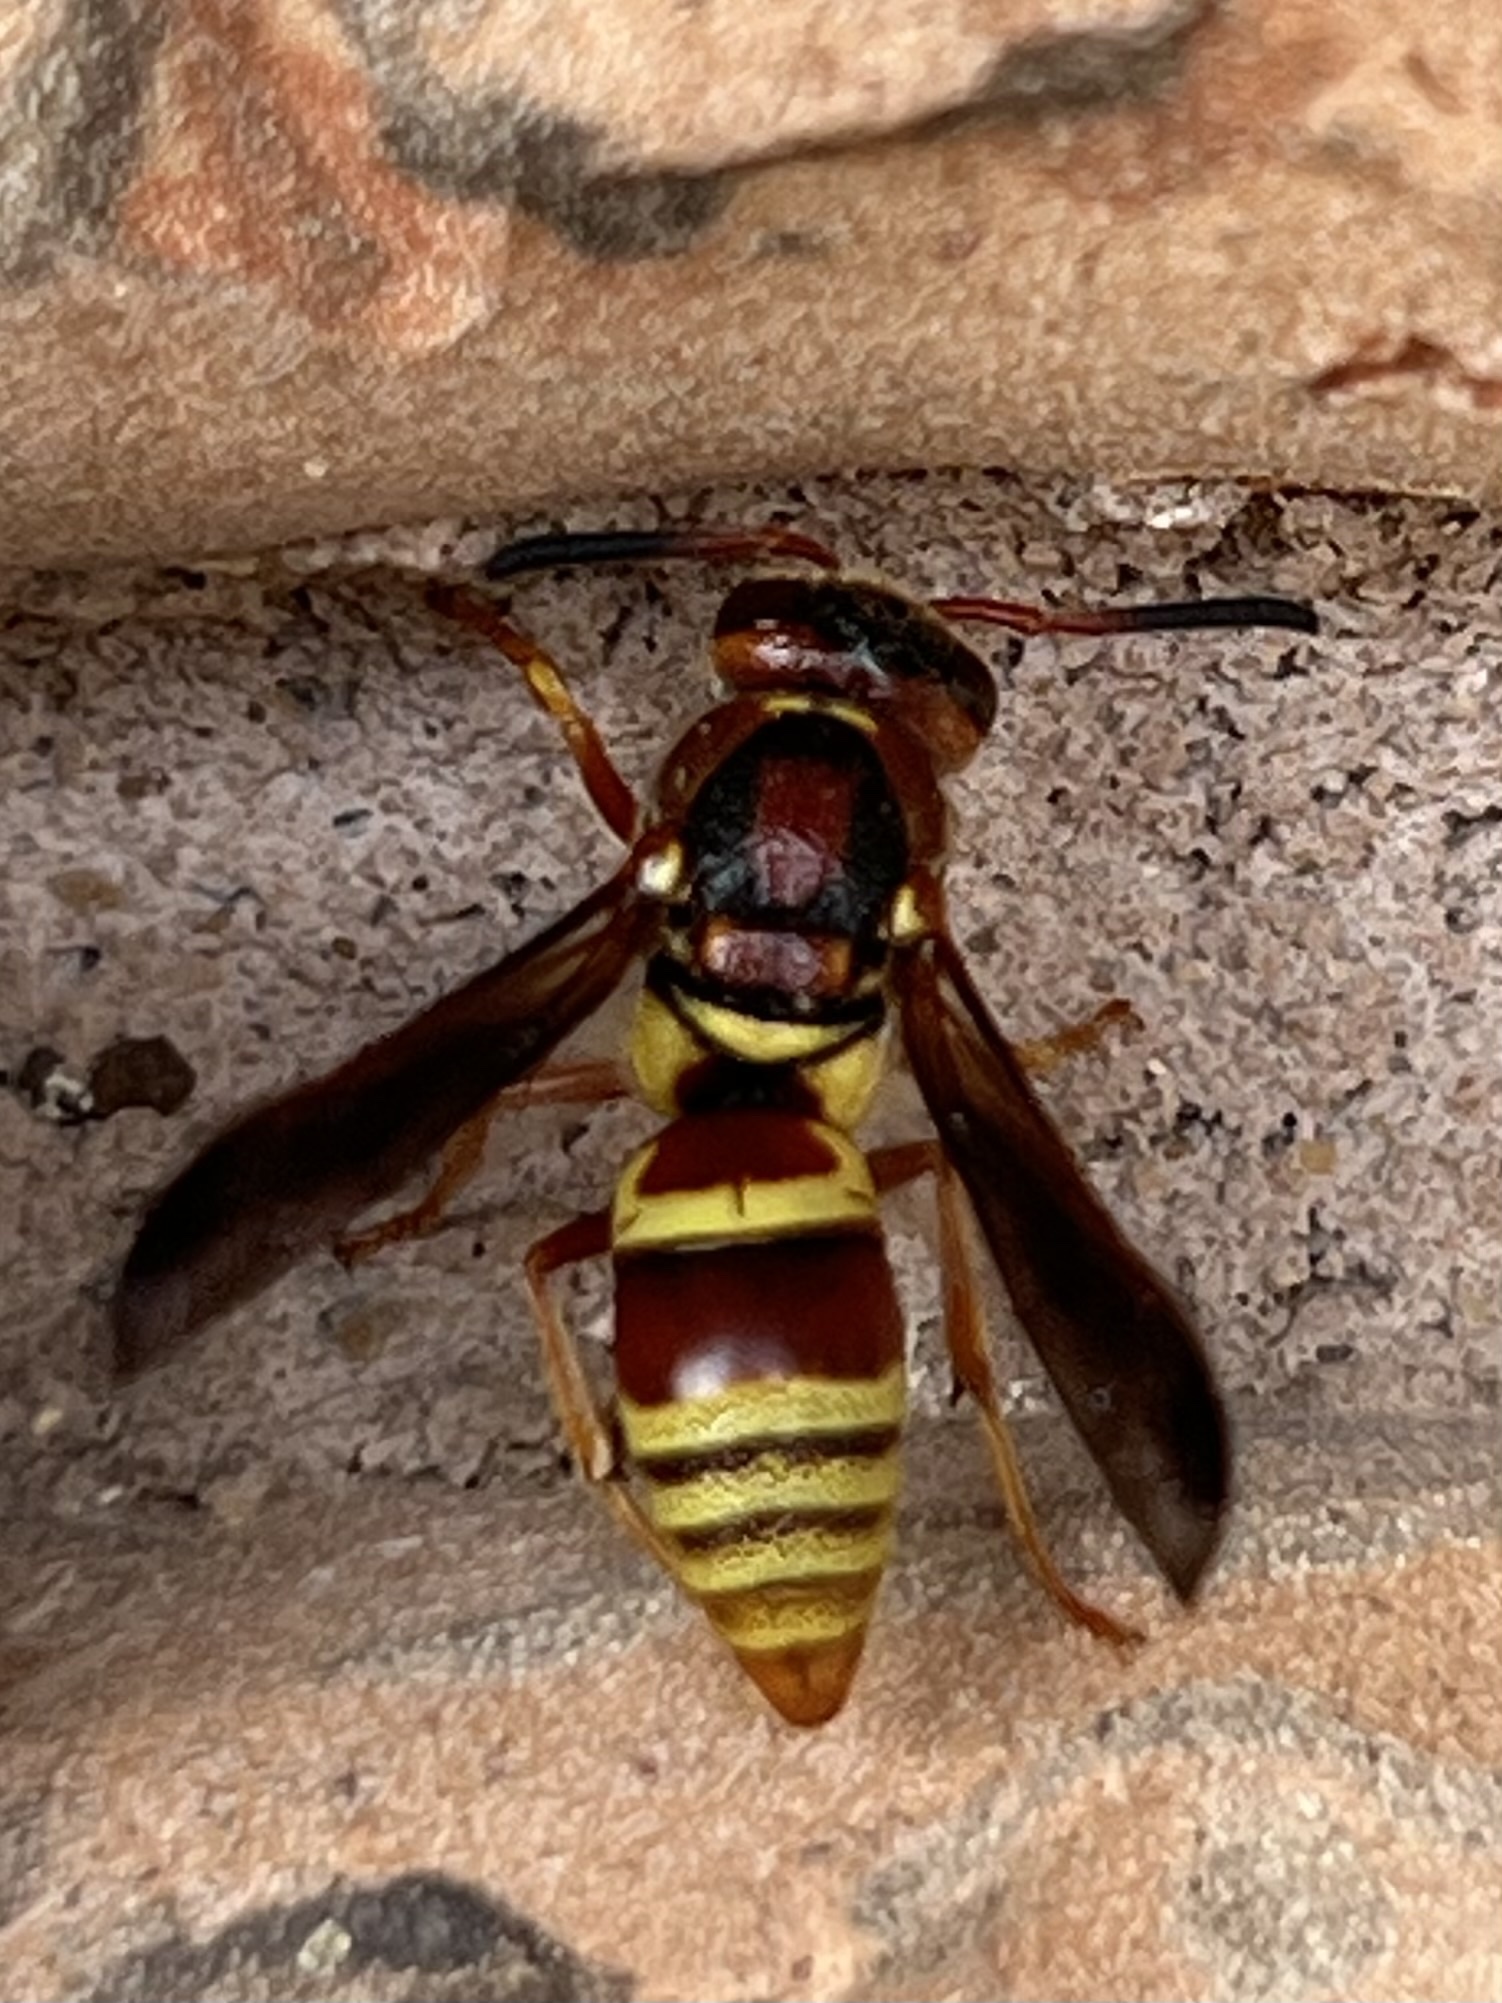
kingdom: Animalia
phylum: Arthropoda
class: Insecta
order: Hymenoptera
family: Eumenidae
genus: Euodynerus
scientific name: Euodynerus pratensis
